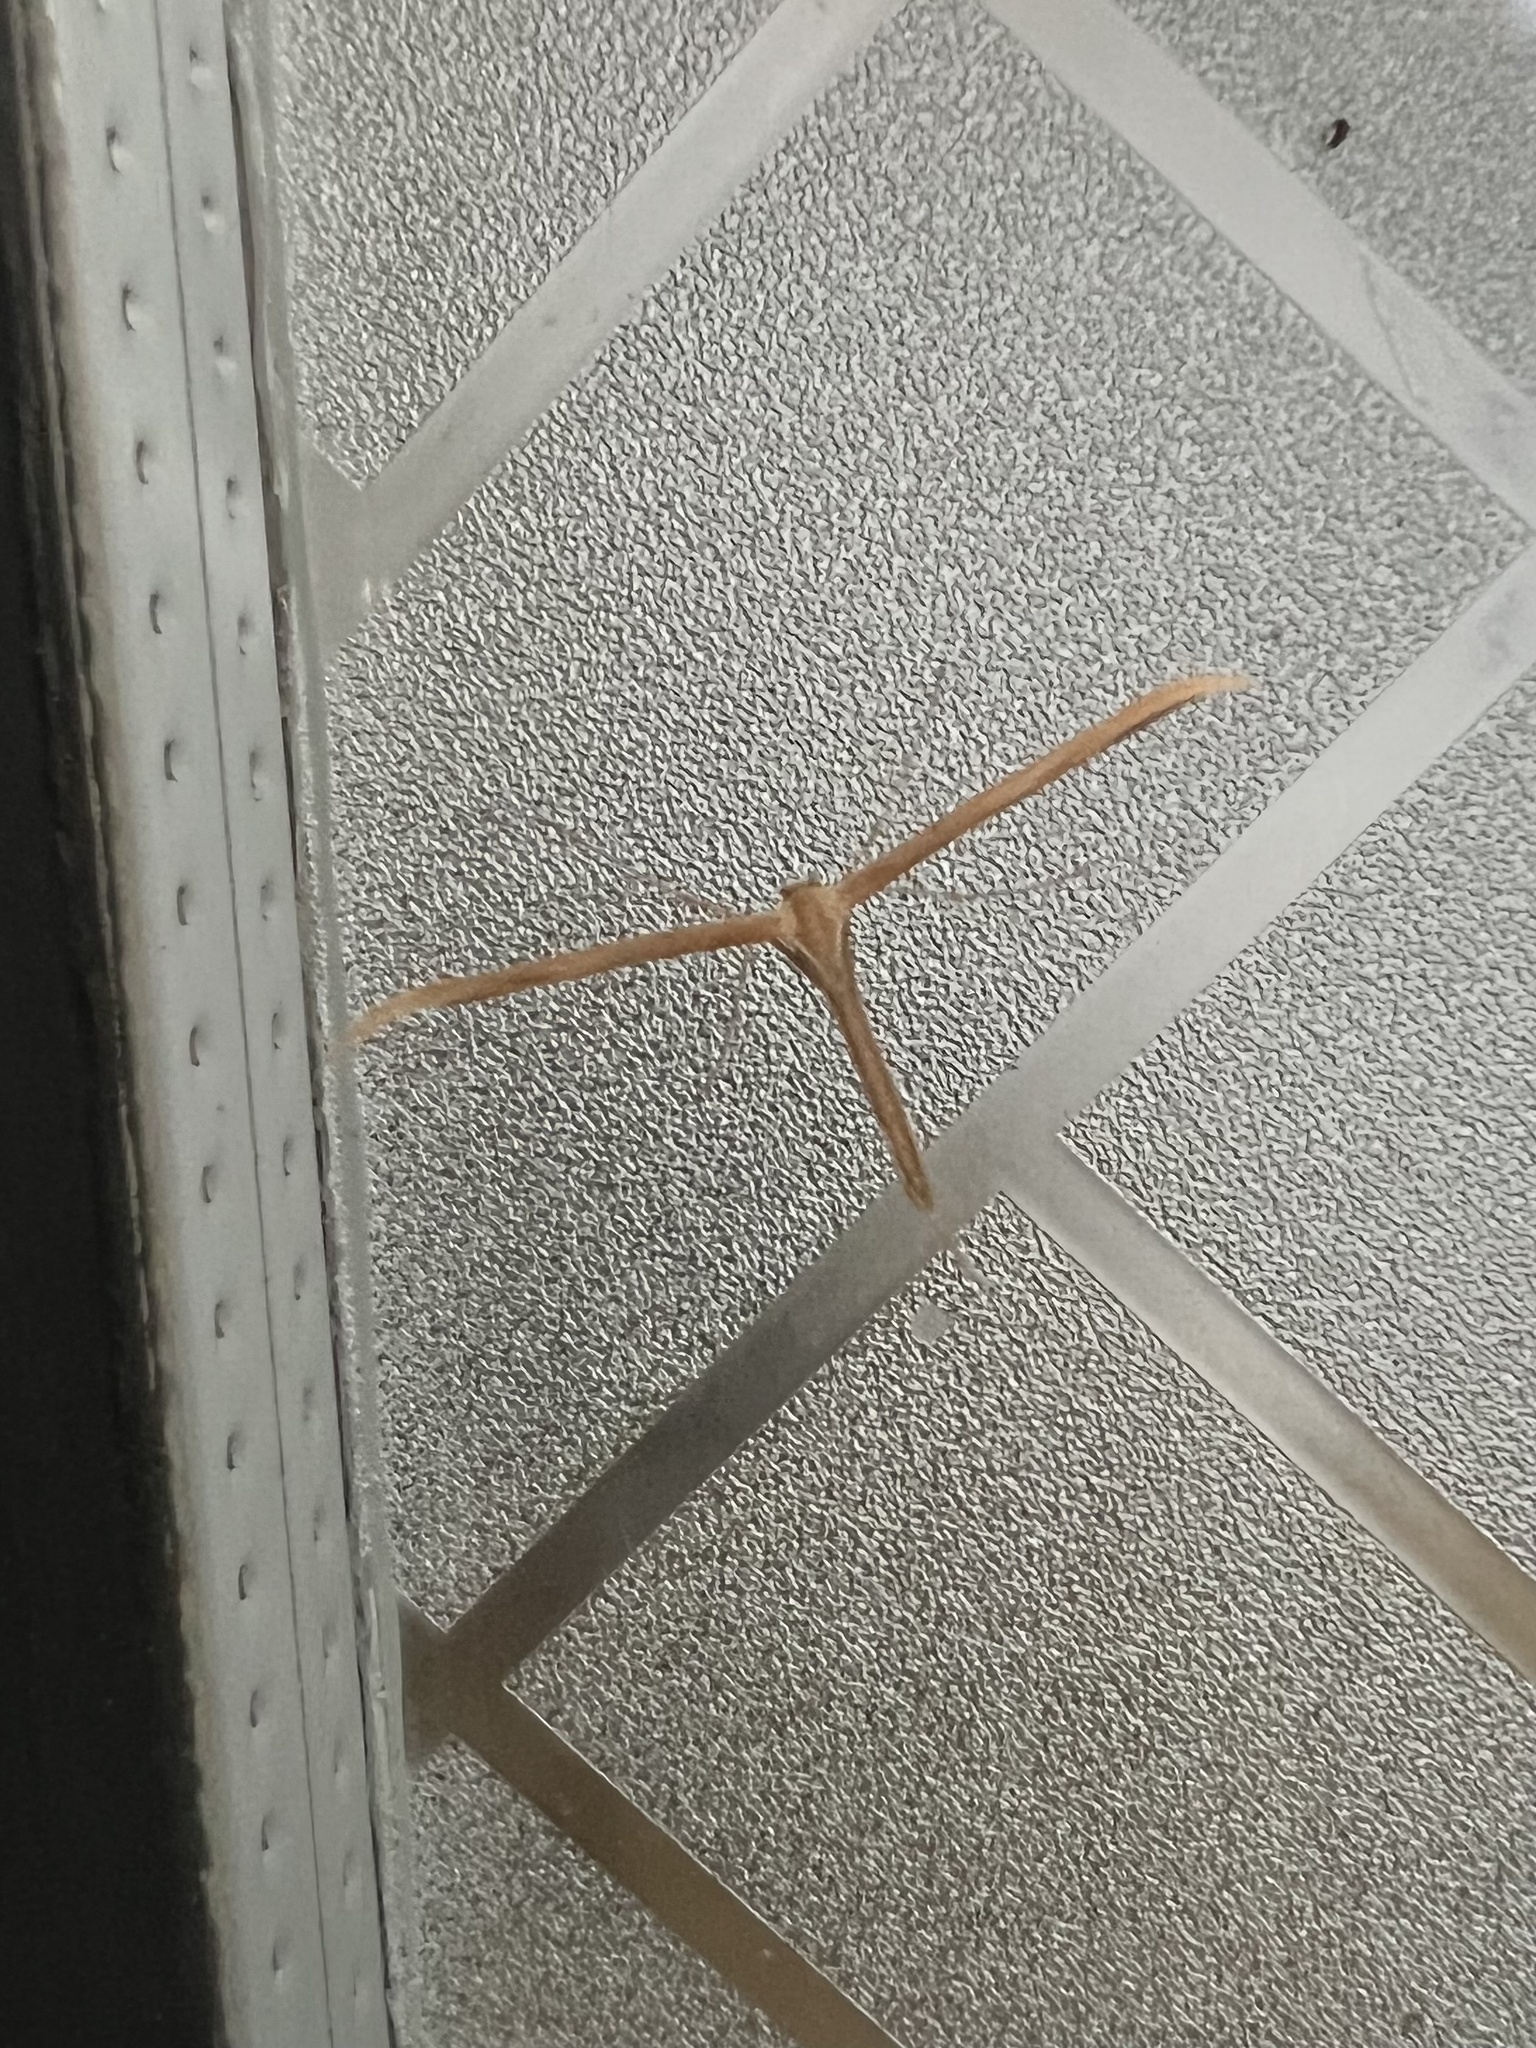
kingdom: Animalia
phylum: Arthropoda
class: Insecta
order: Lepidoptera
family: Pterophoridae
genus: Emmelina
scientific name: Emmelina monodactyla
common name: Common plume
